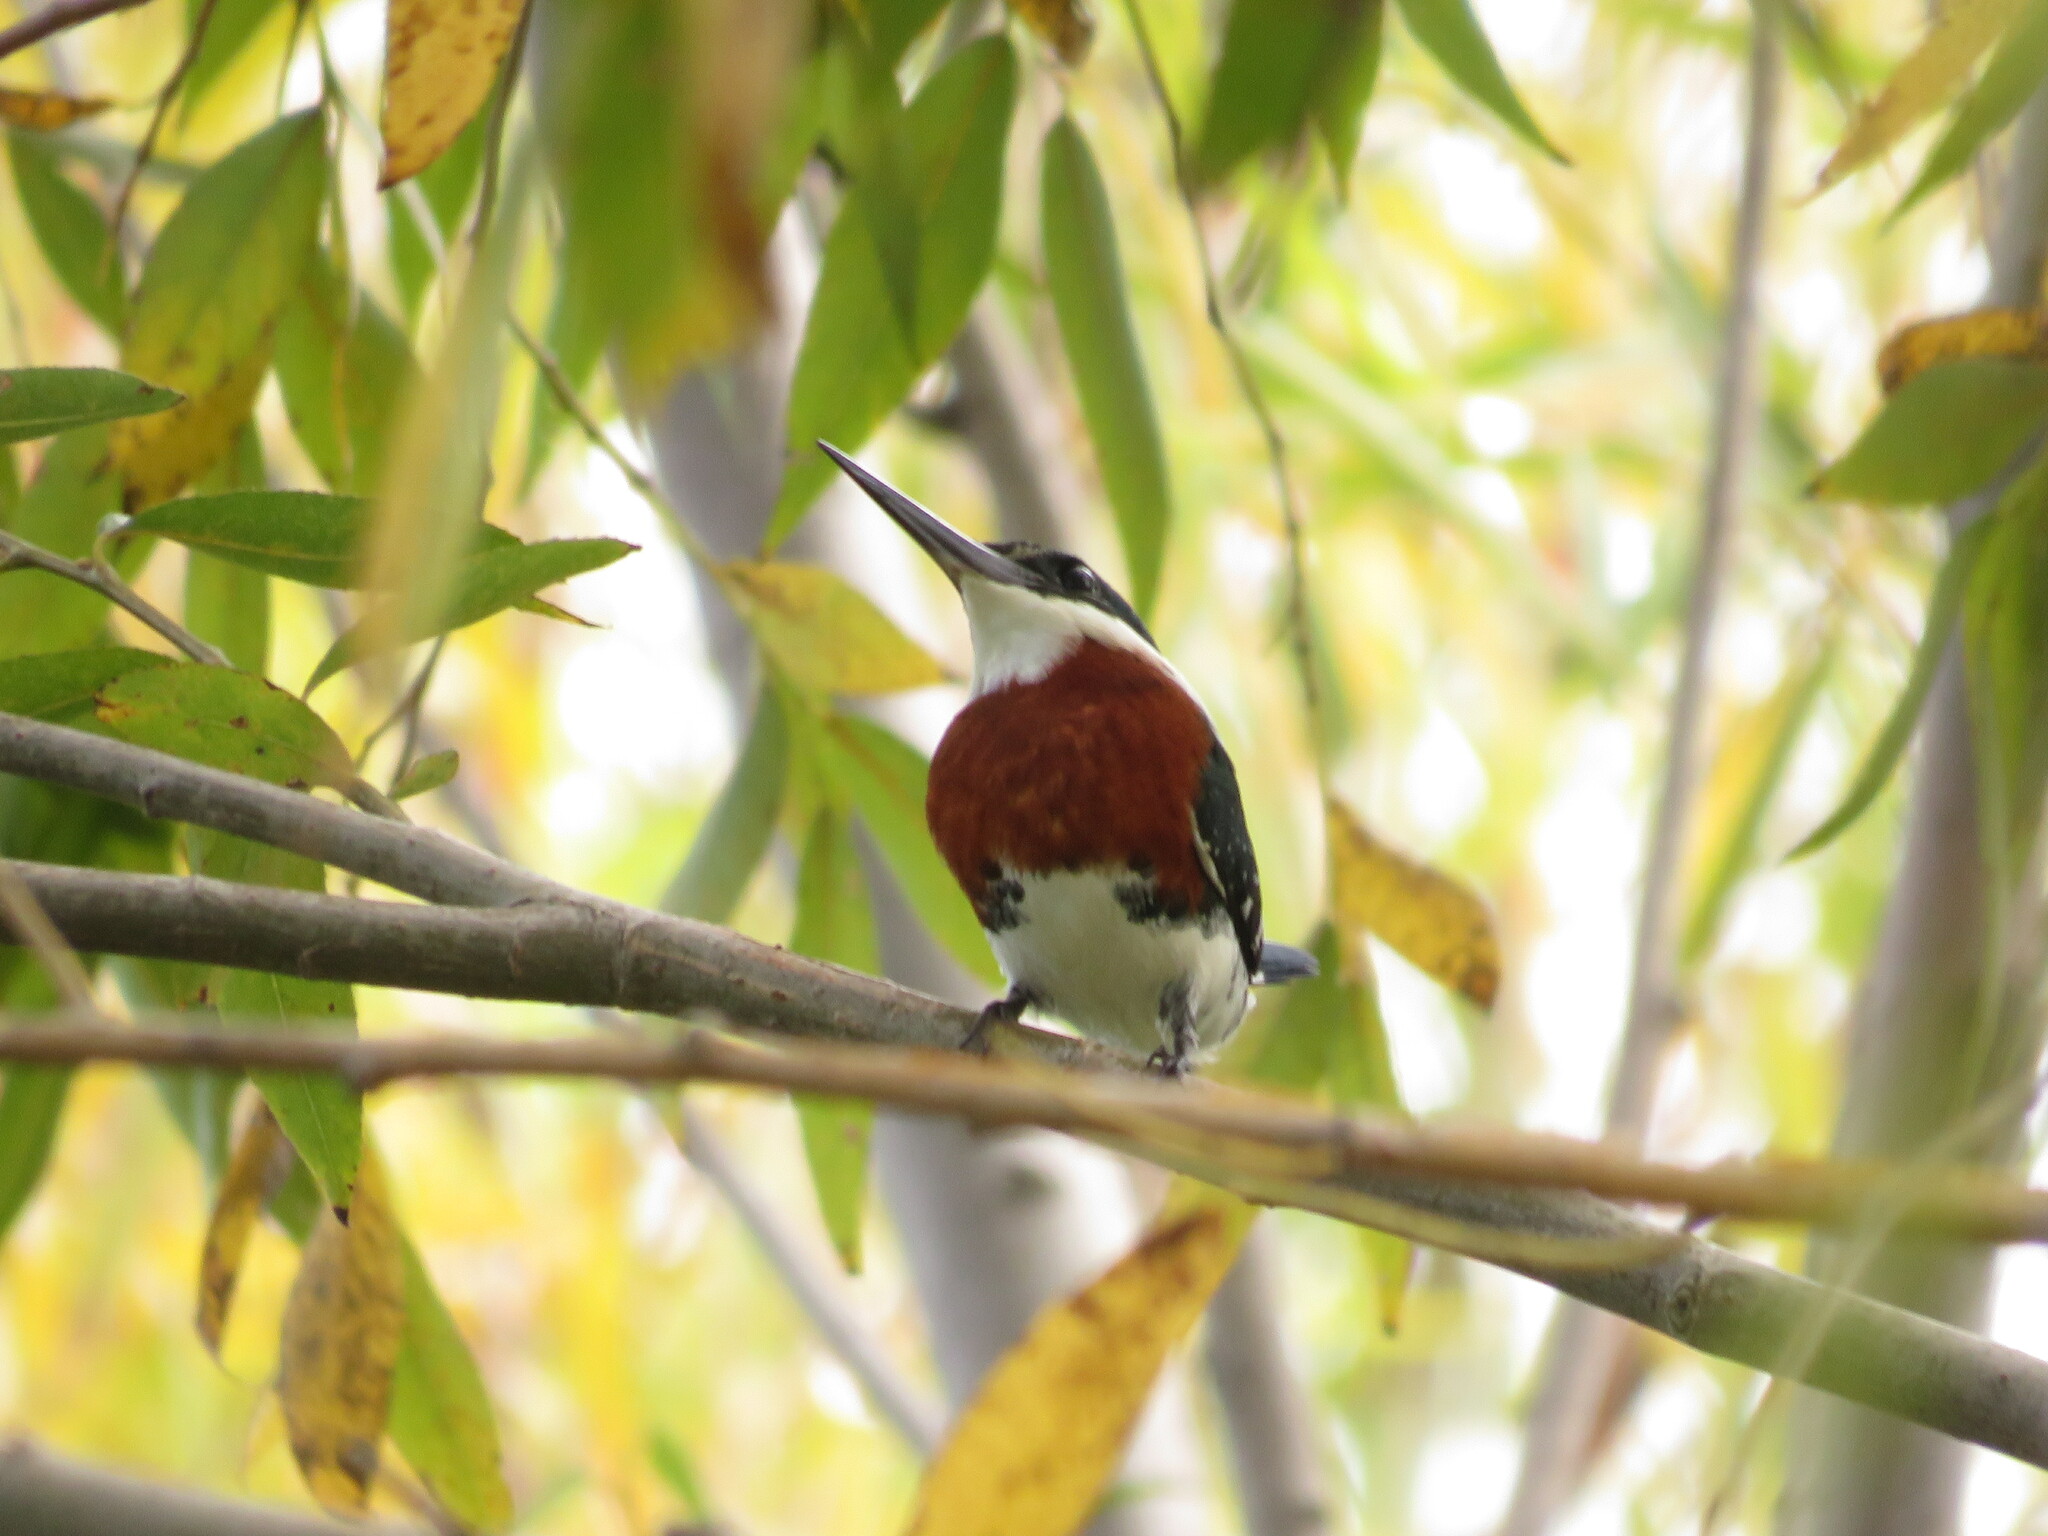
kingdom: Animalia
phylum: Chordata
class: Aves
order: Coraciiformes
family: Alcedinidae
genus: Chloroceryle
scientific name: Chloroceryle americana
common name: Green kingfisher
